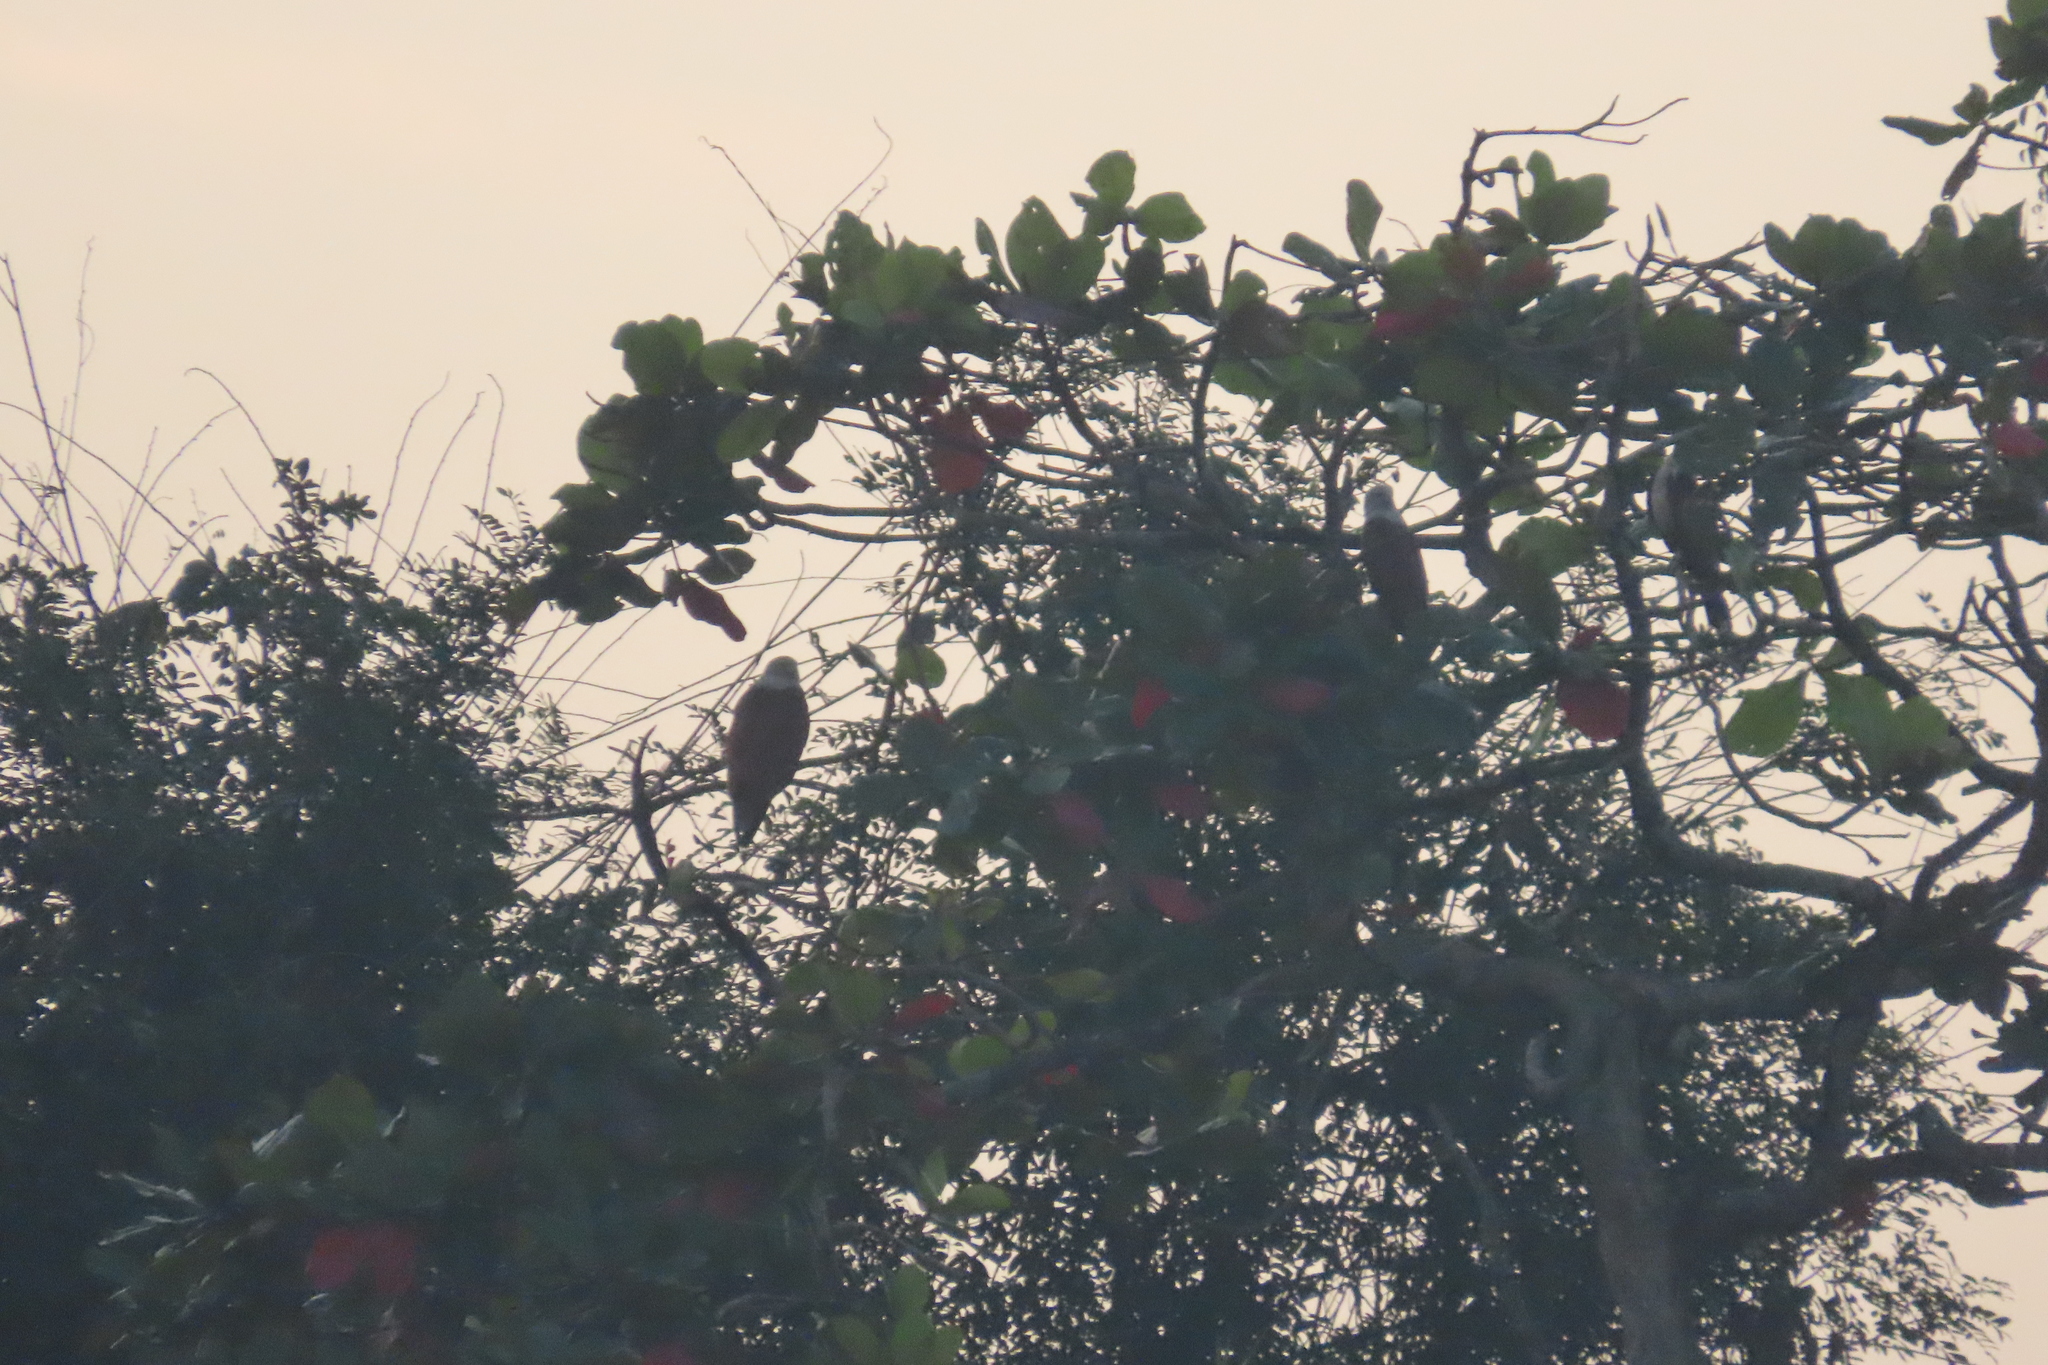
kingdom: Animalia
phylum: Chordata
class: Aves
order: Accipitriformes
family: Accipitridae
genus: Haliastur
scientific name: Haliastur indus
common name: Brahminy kite
